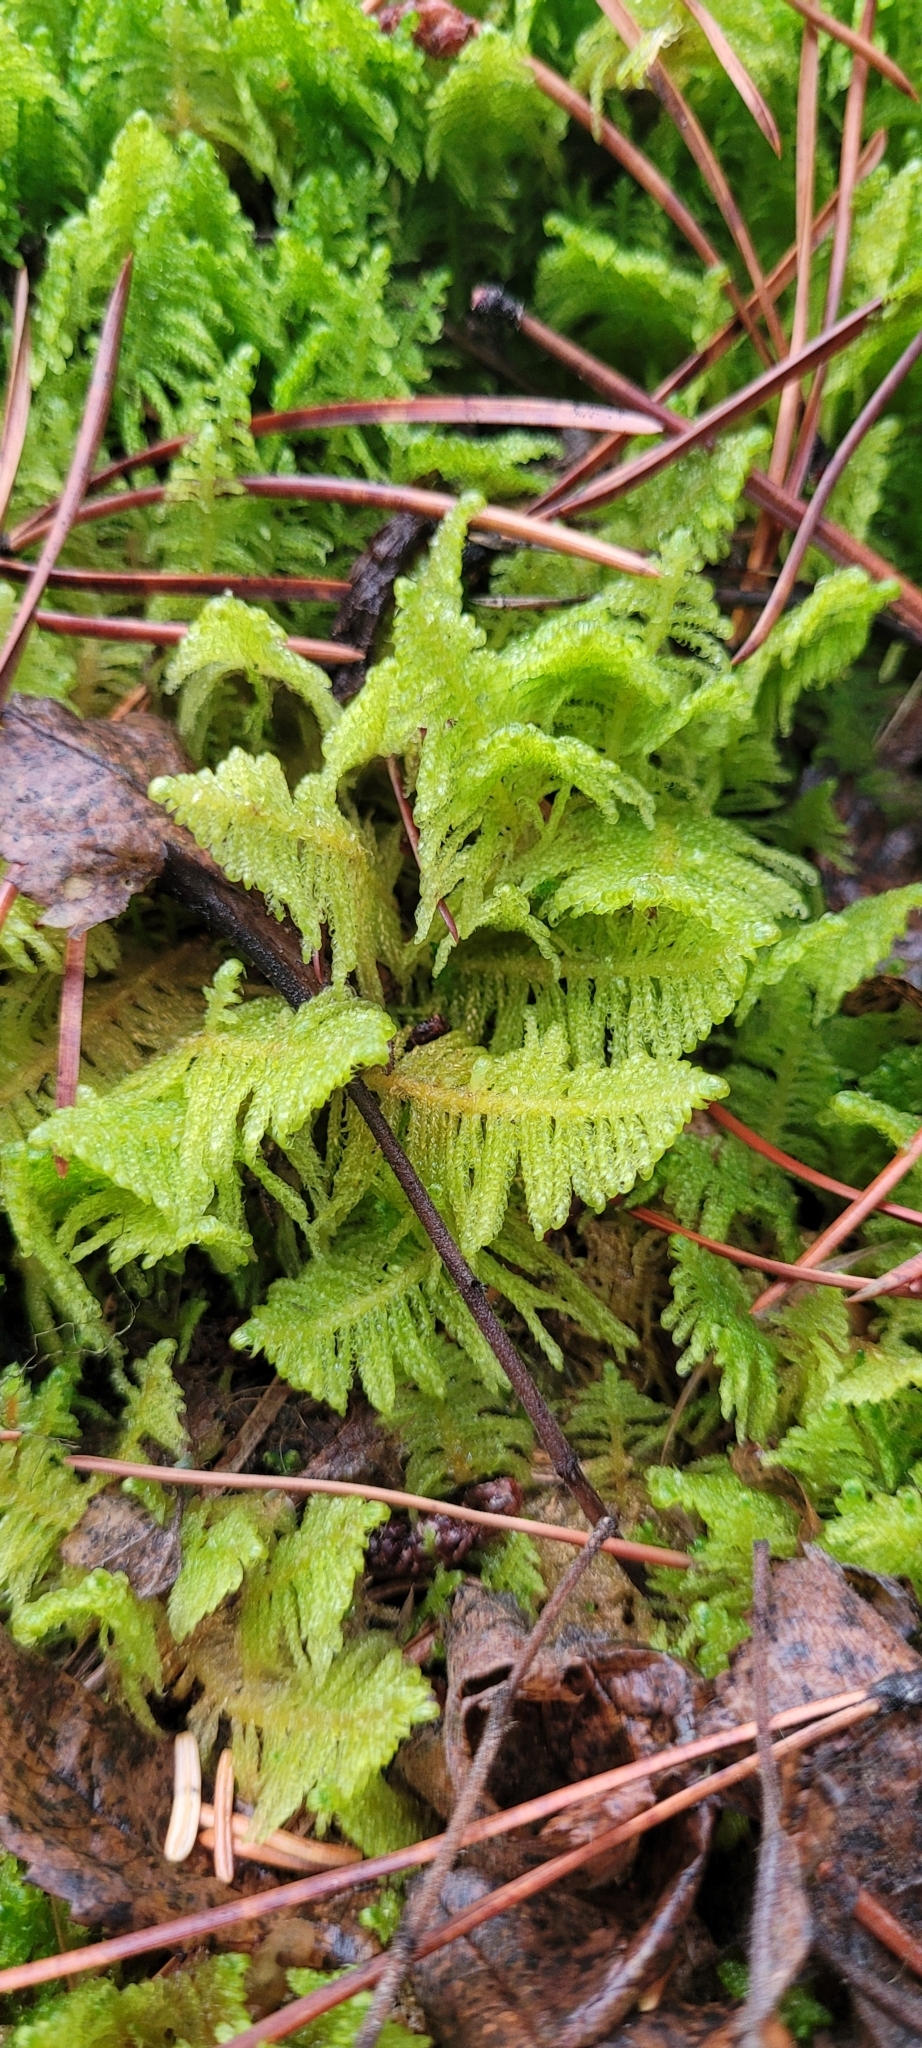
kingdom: Plantae
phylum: Bryophyta
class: Bryopsida
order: Hypnales
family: Pylaisiaceae
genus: Ptilium
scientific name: Ptilium crista-castrensis
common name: Knight's plume moss
